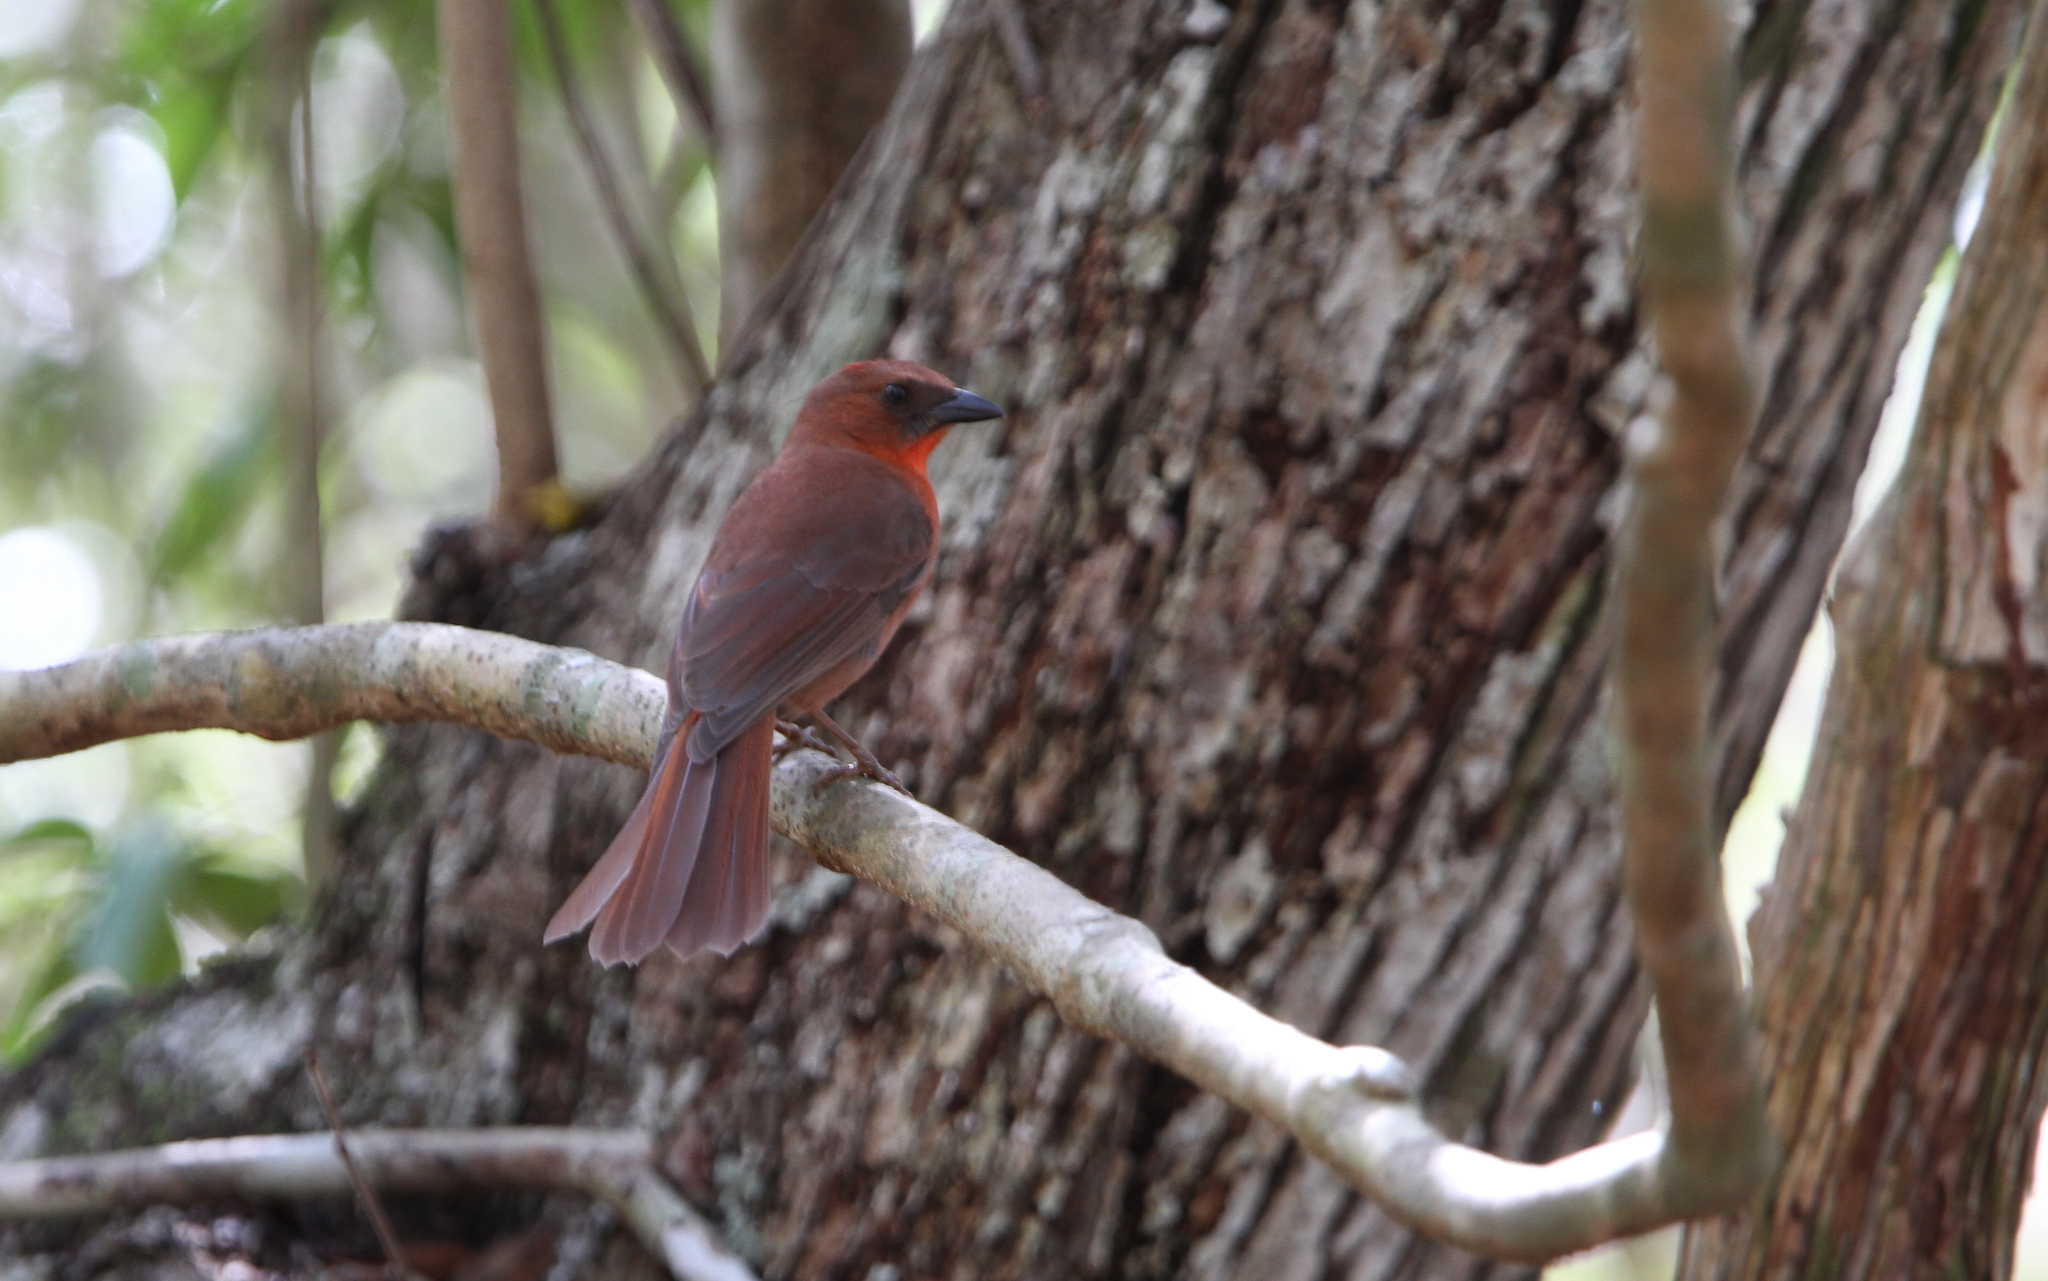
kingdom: Animalia
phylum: Chordata
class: Aves
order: Passeriformes
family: Cardinalidae
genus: Habia
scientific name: Habia fuscicauda
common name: Red-throated ant-tanager
